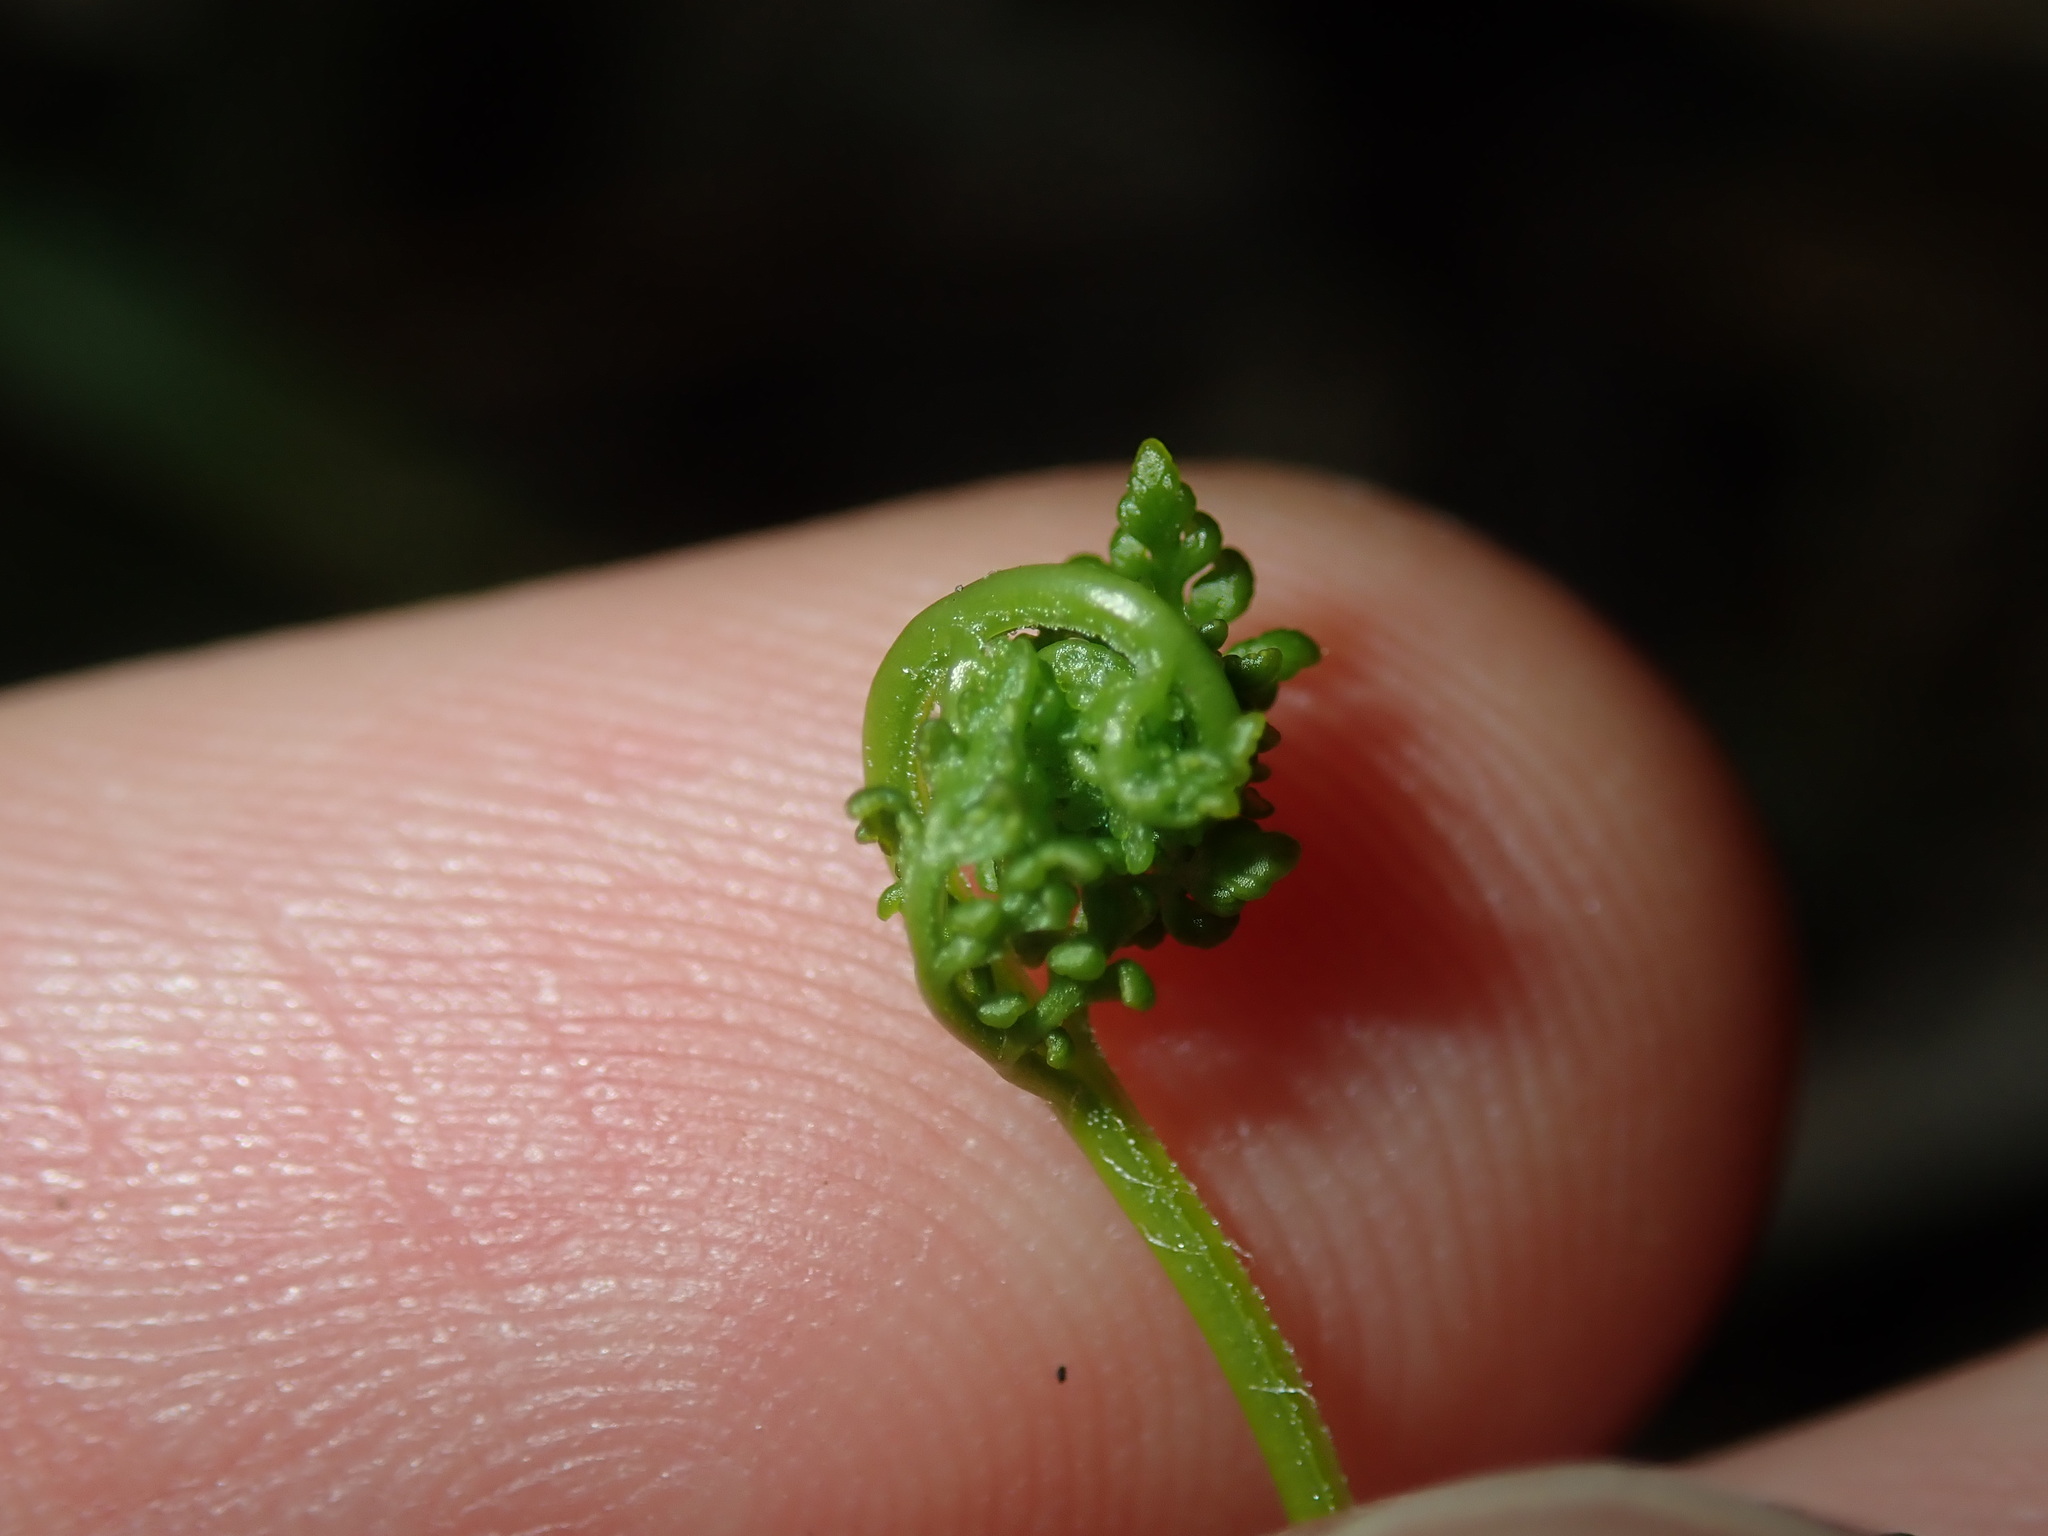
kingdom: Plantae
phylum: Tracheophyta
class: Polypodiopsida
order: Polypodiales
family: Pteridaceae
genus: Cheilanthes
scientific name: Cheilanthes sieberi
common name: Mulga fern
